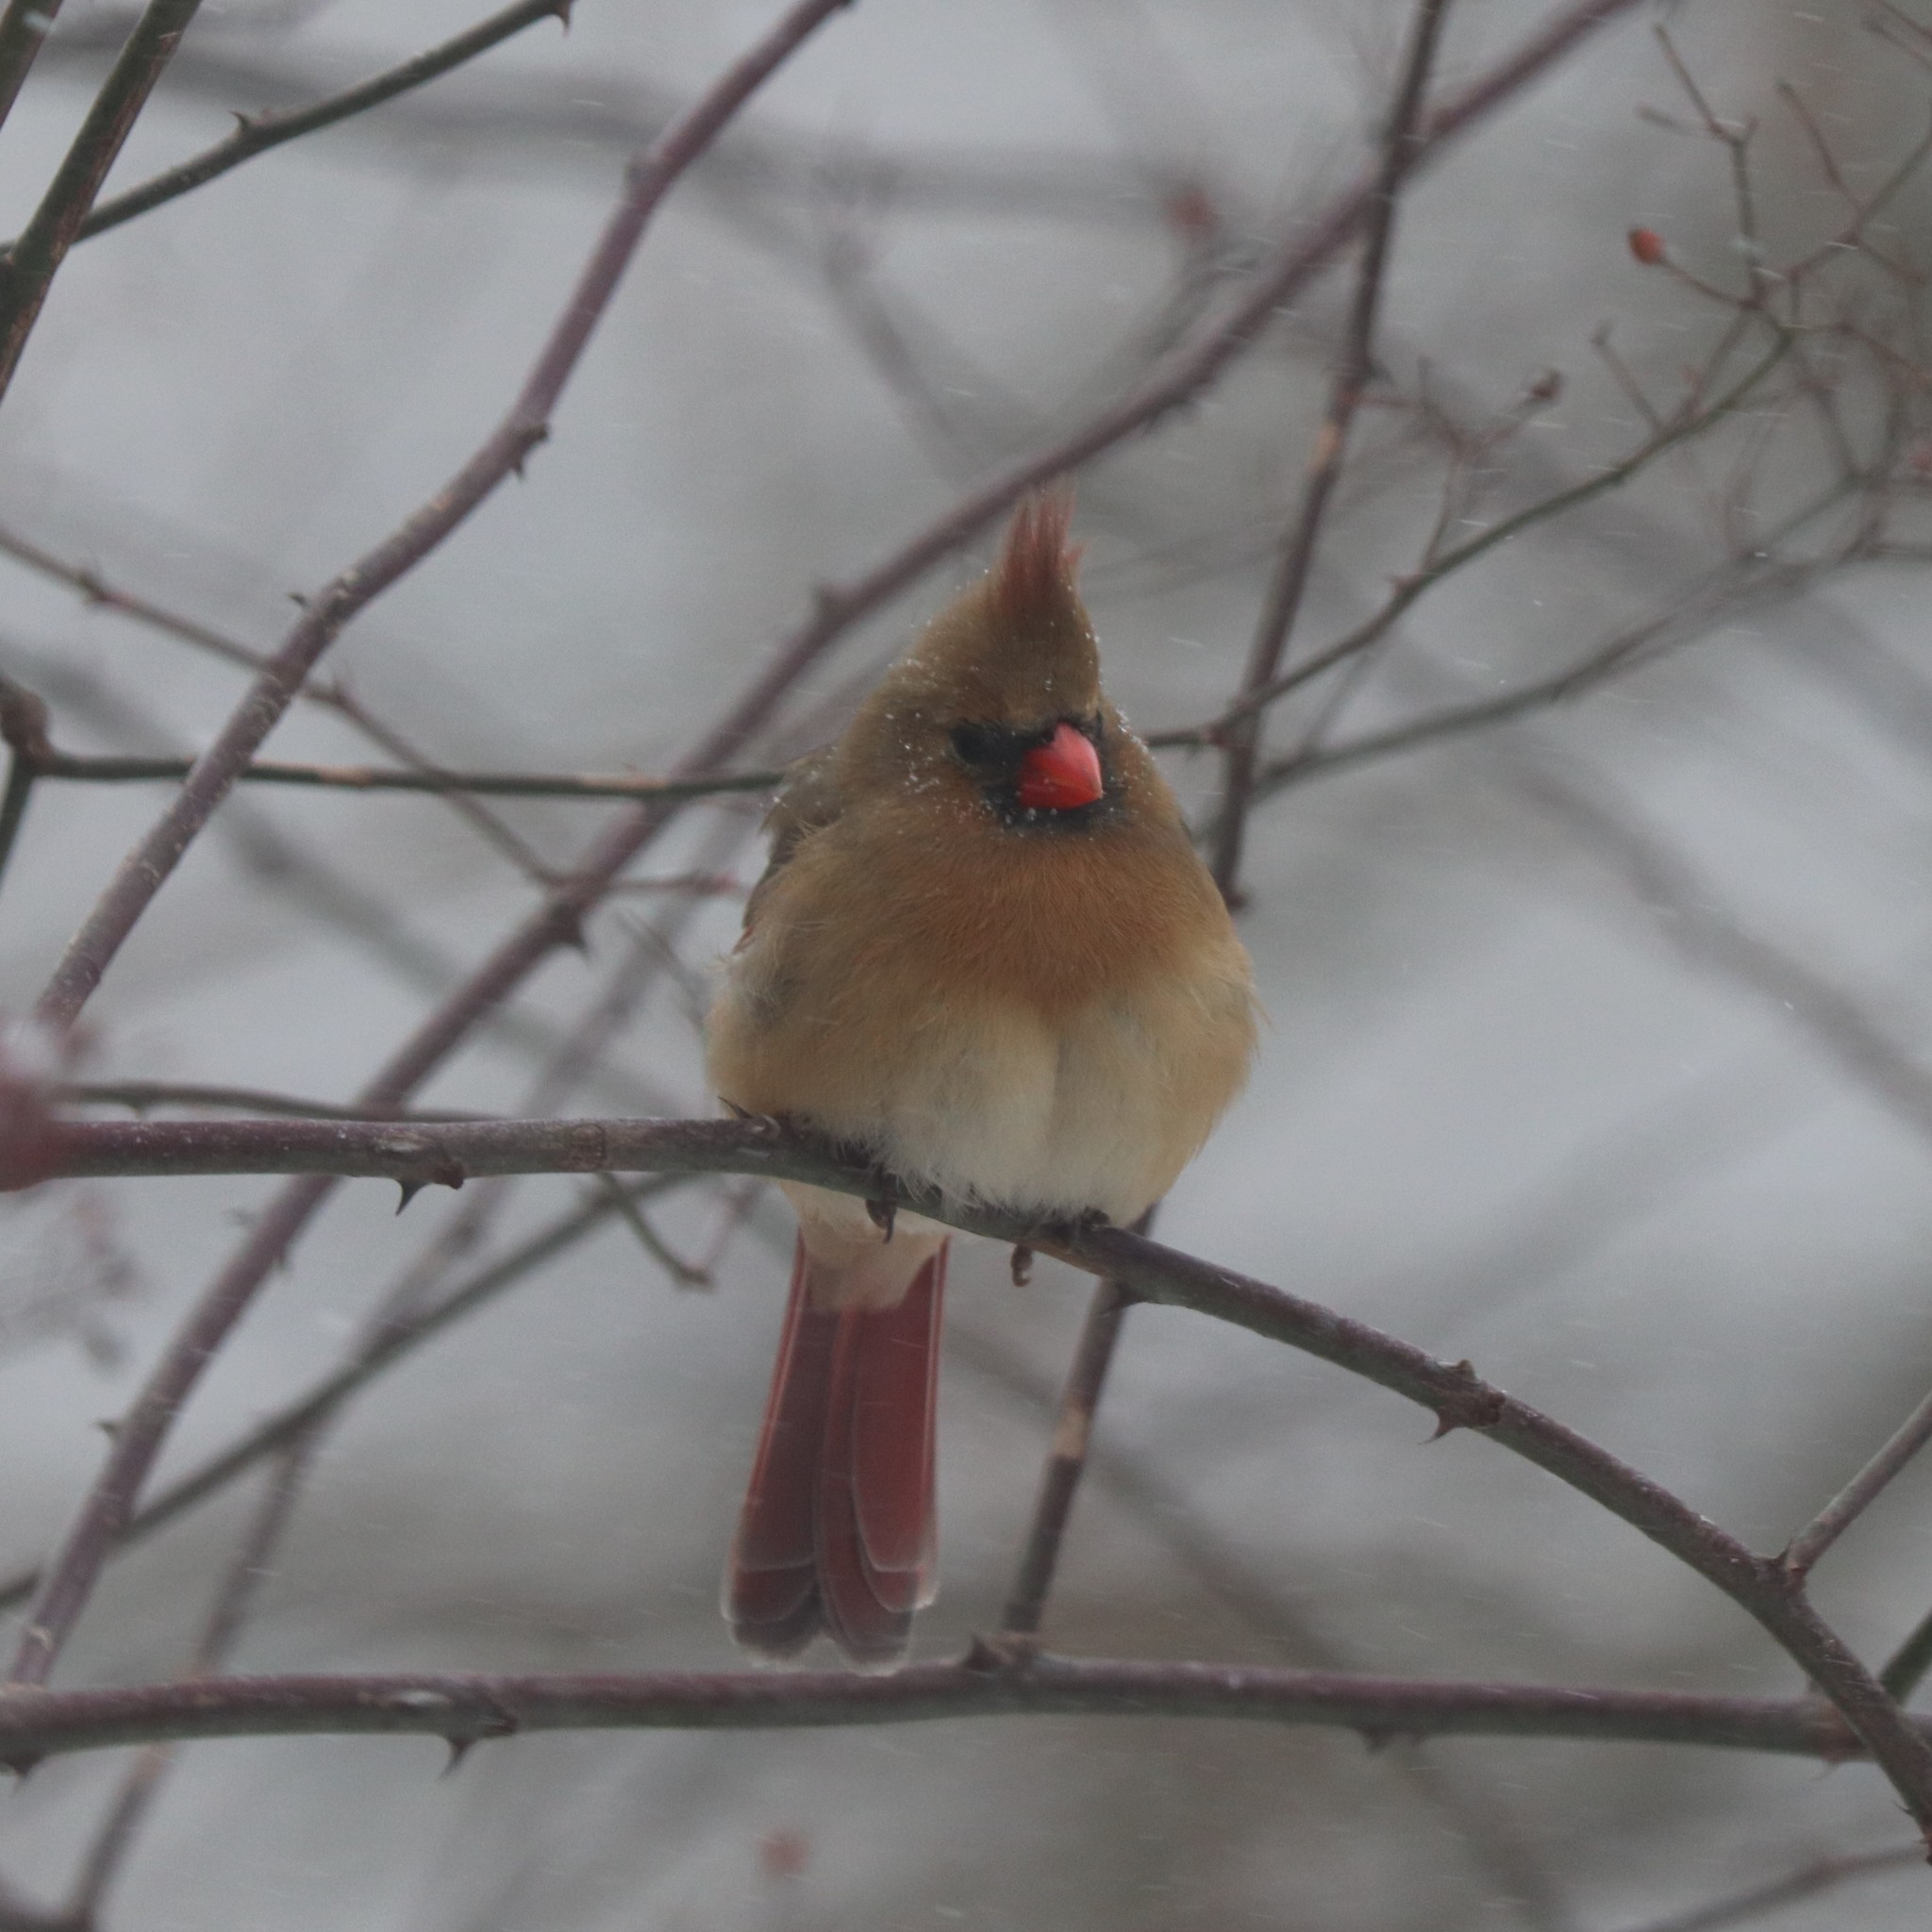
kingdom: Animalia
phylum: Chordata
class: Aves
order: Passeriformes
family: Cardinalidae
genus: Cardinalis
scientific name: Cardinalis cardinalis
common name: Northern cardinal
